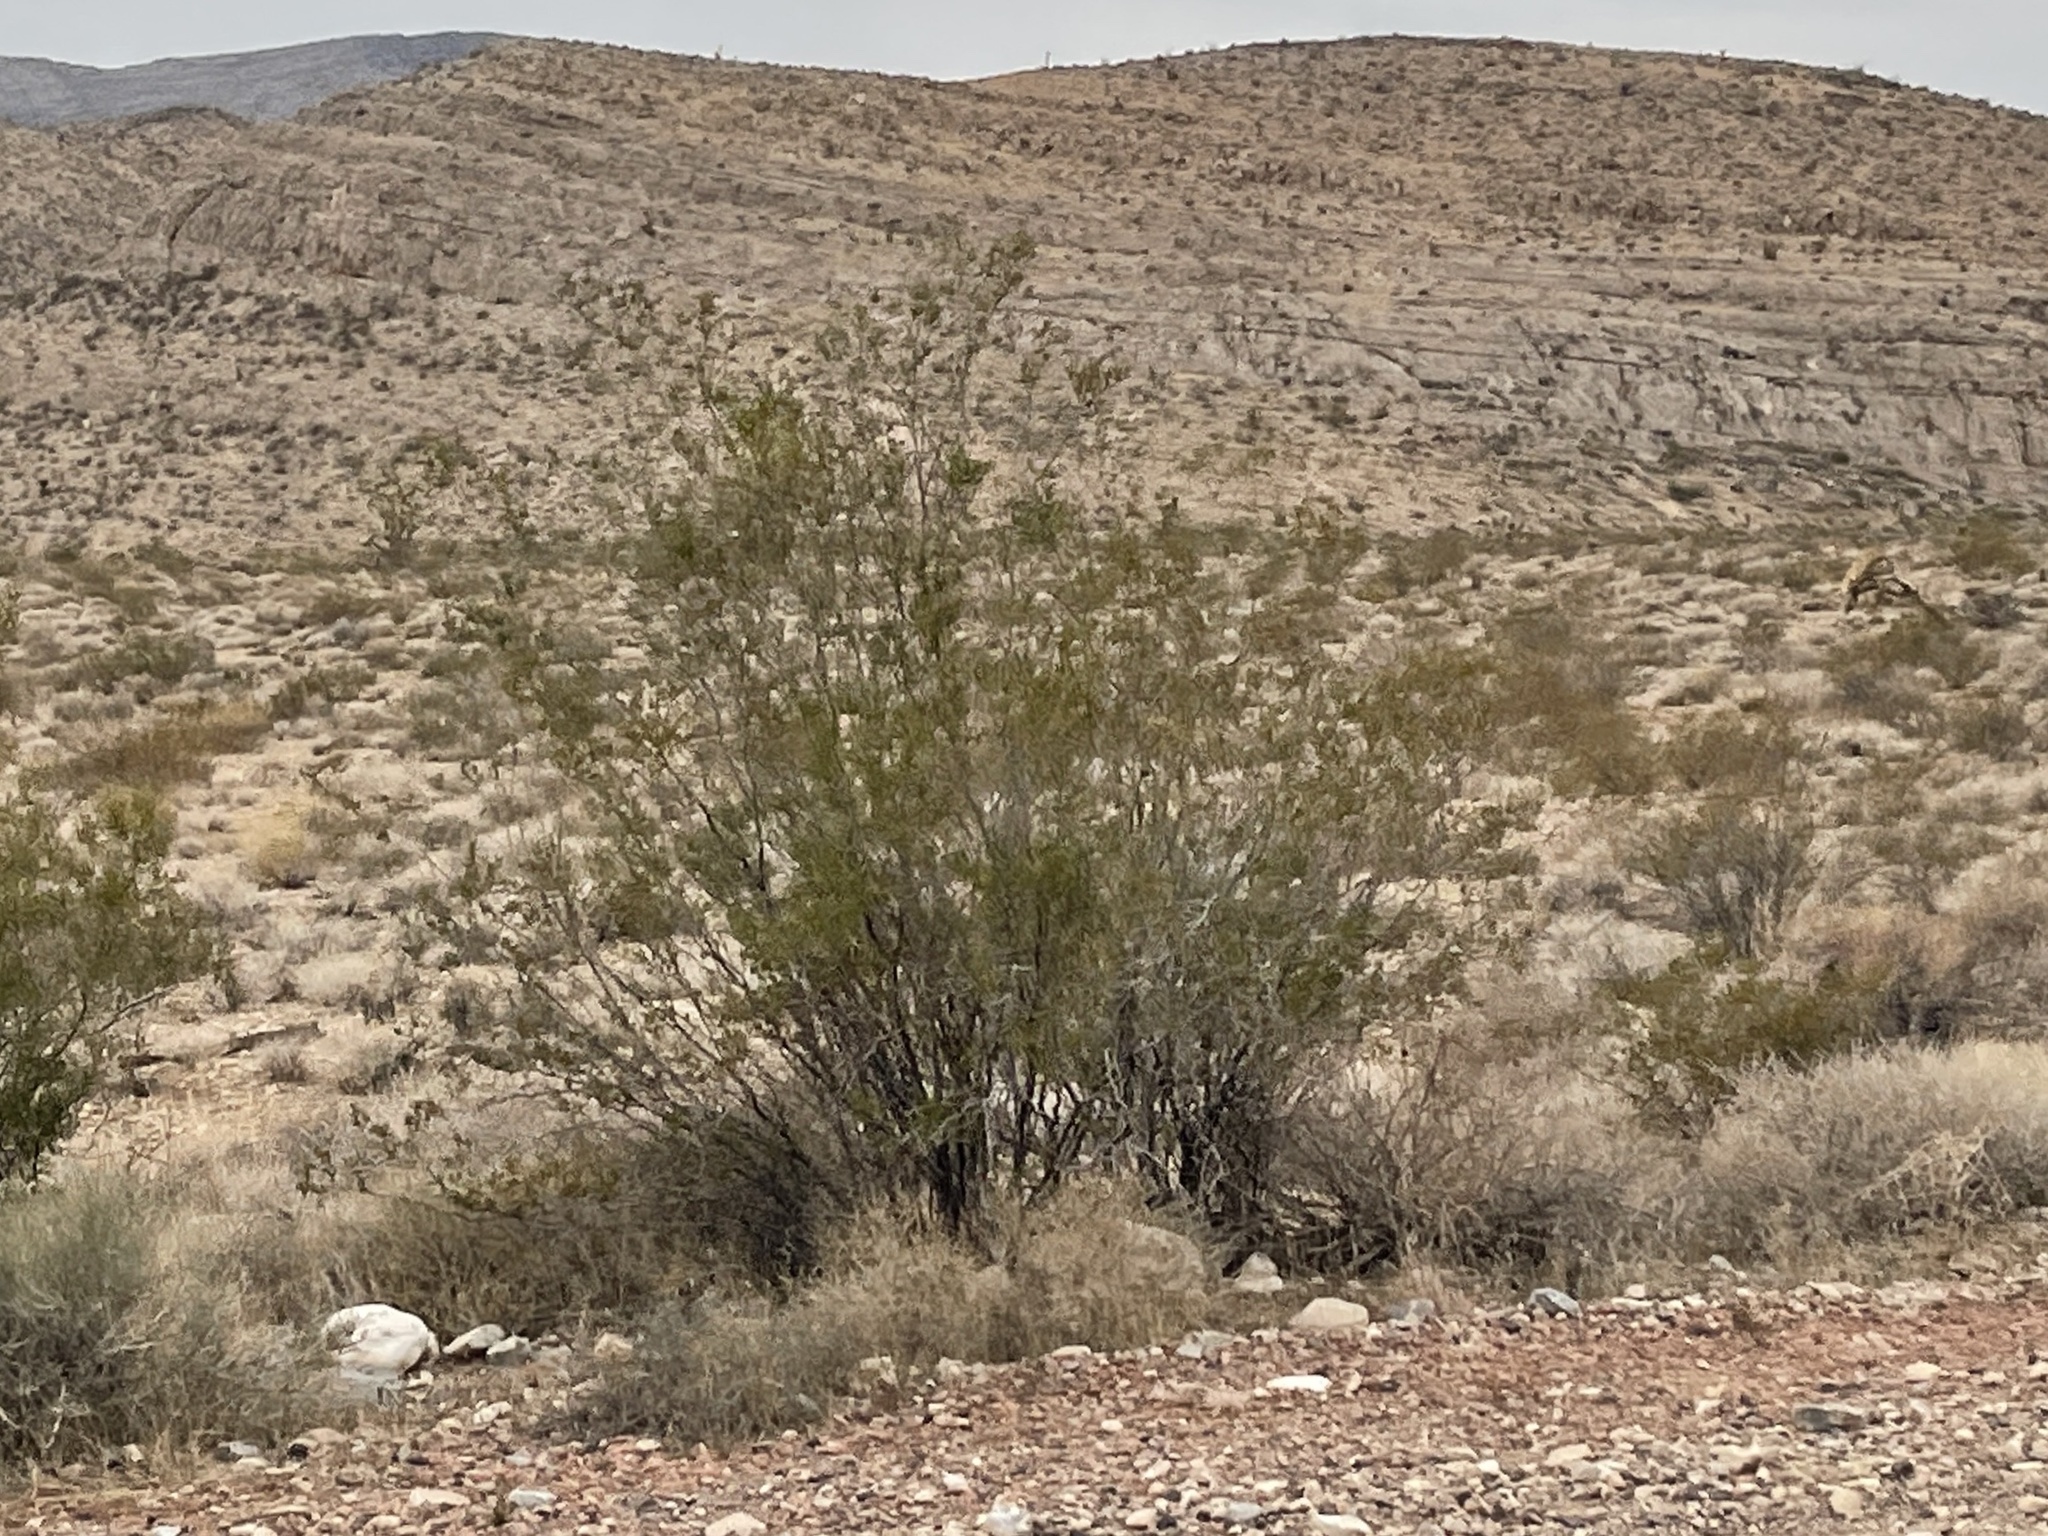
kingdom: Plantae
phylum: Tracheophyta
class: Magnoliopsida
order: Zygophyllales
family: Zygophyllaceae
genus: Larrea
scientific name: Larrea tridentata
